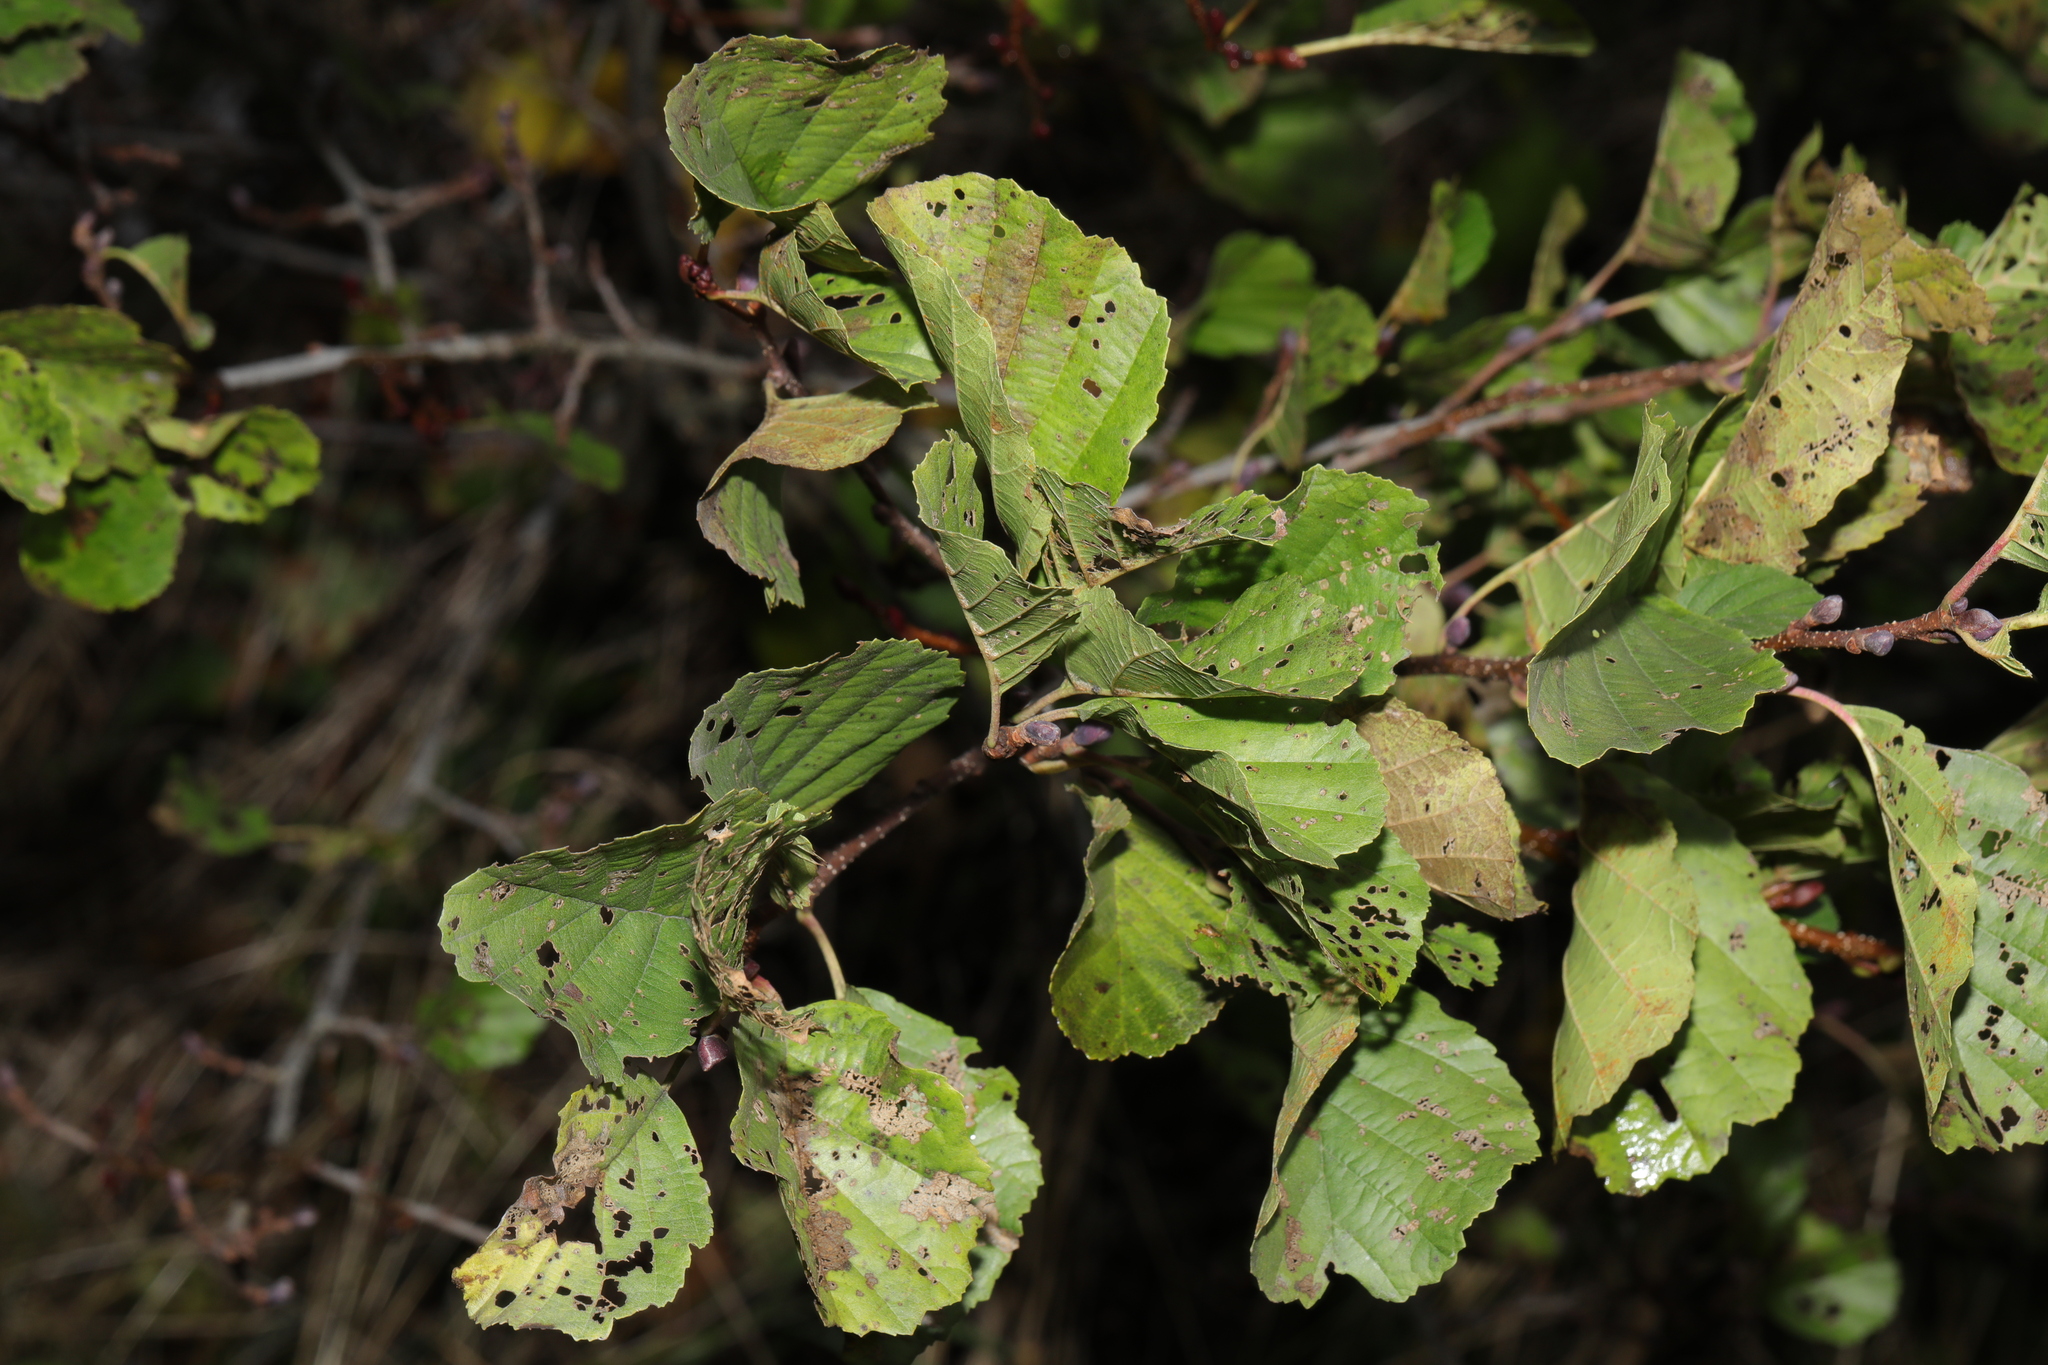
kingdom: Plantae
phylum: Tracheophyta
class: Magnoliopsida
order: Fagales
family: Betulaceae
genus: Alnus
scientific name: Alnus glutinosa
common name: Black alder
